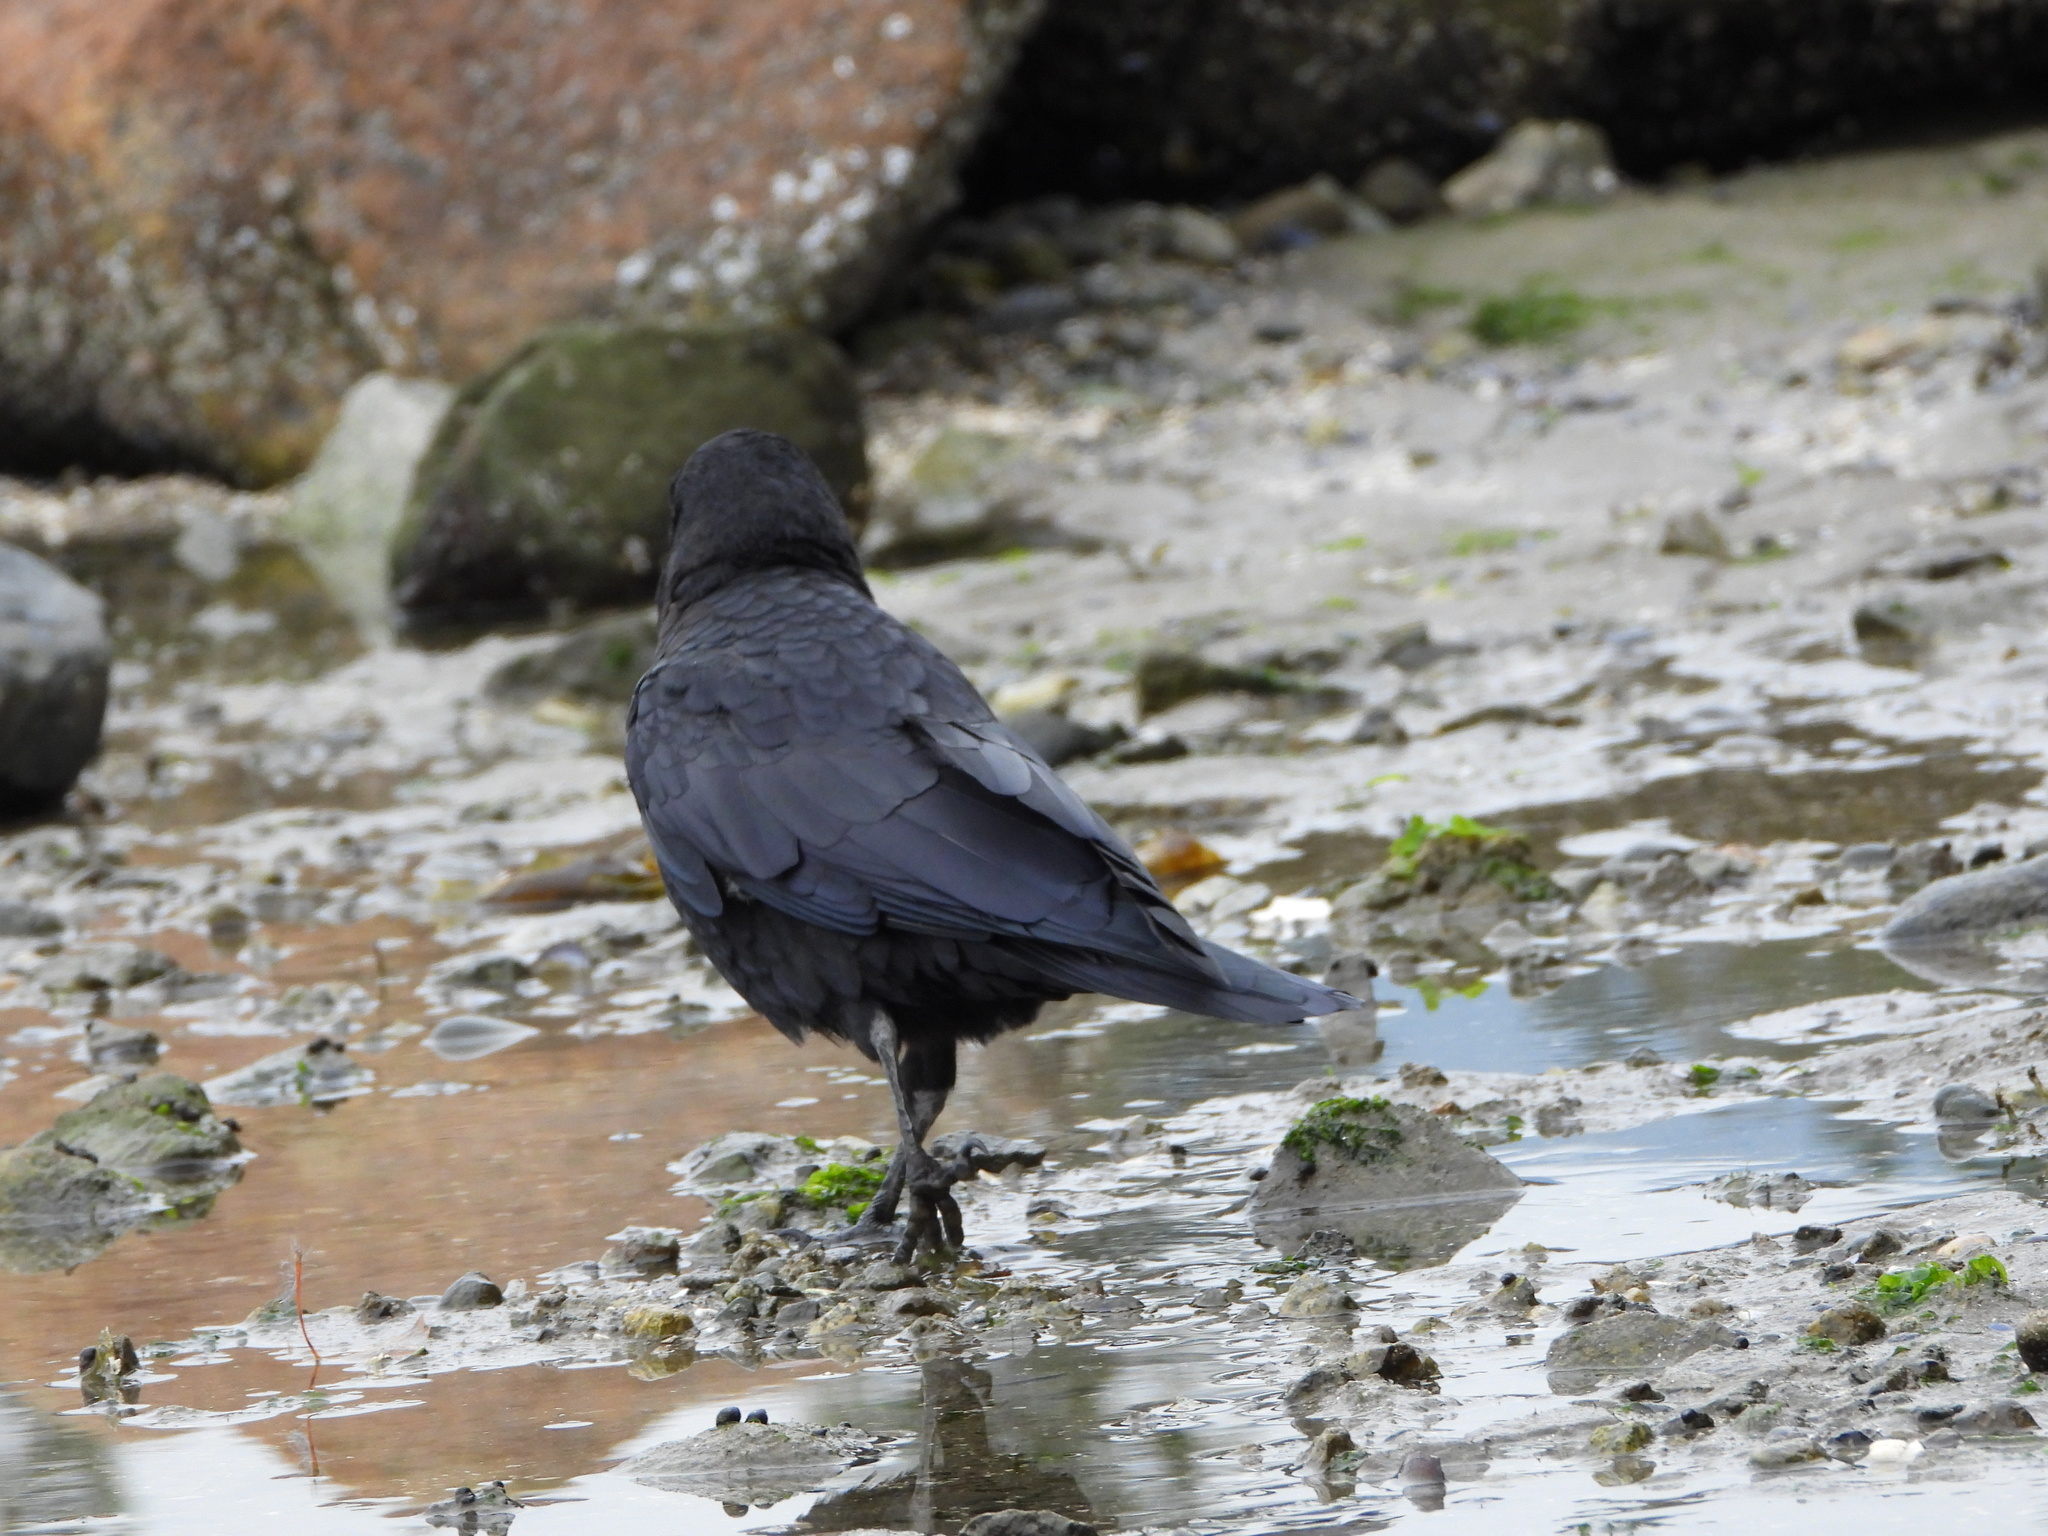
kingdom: Animalia
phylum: Chordata
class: Aves
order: Passeriformes
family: Corvidae
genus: Corvus
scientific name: Corvus brachyrhynchos
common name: American crow
